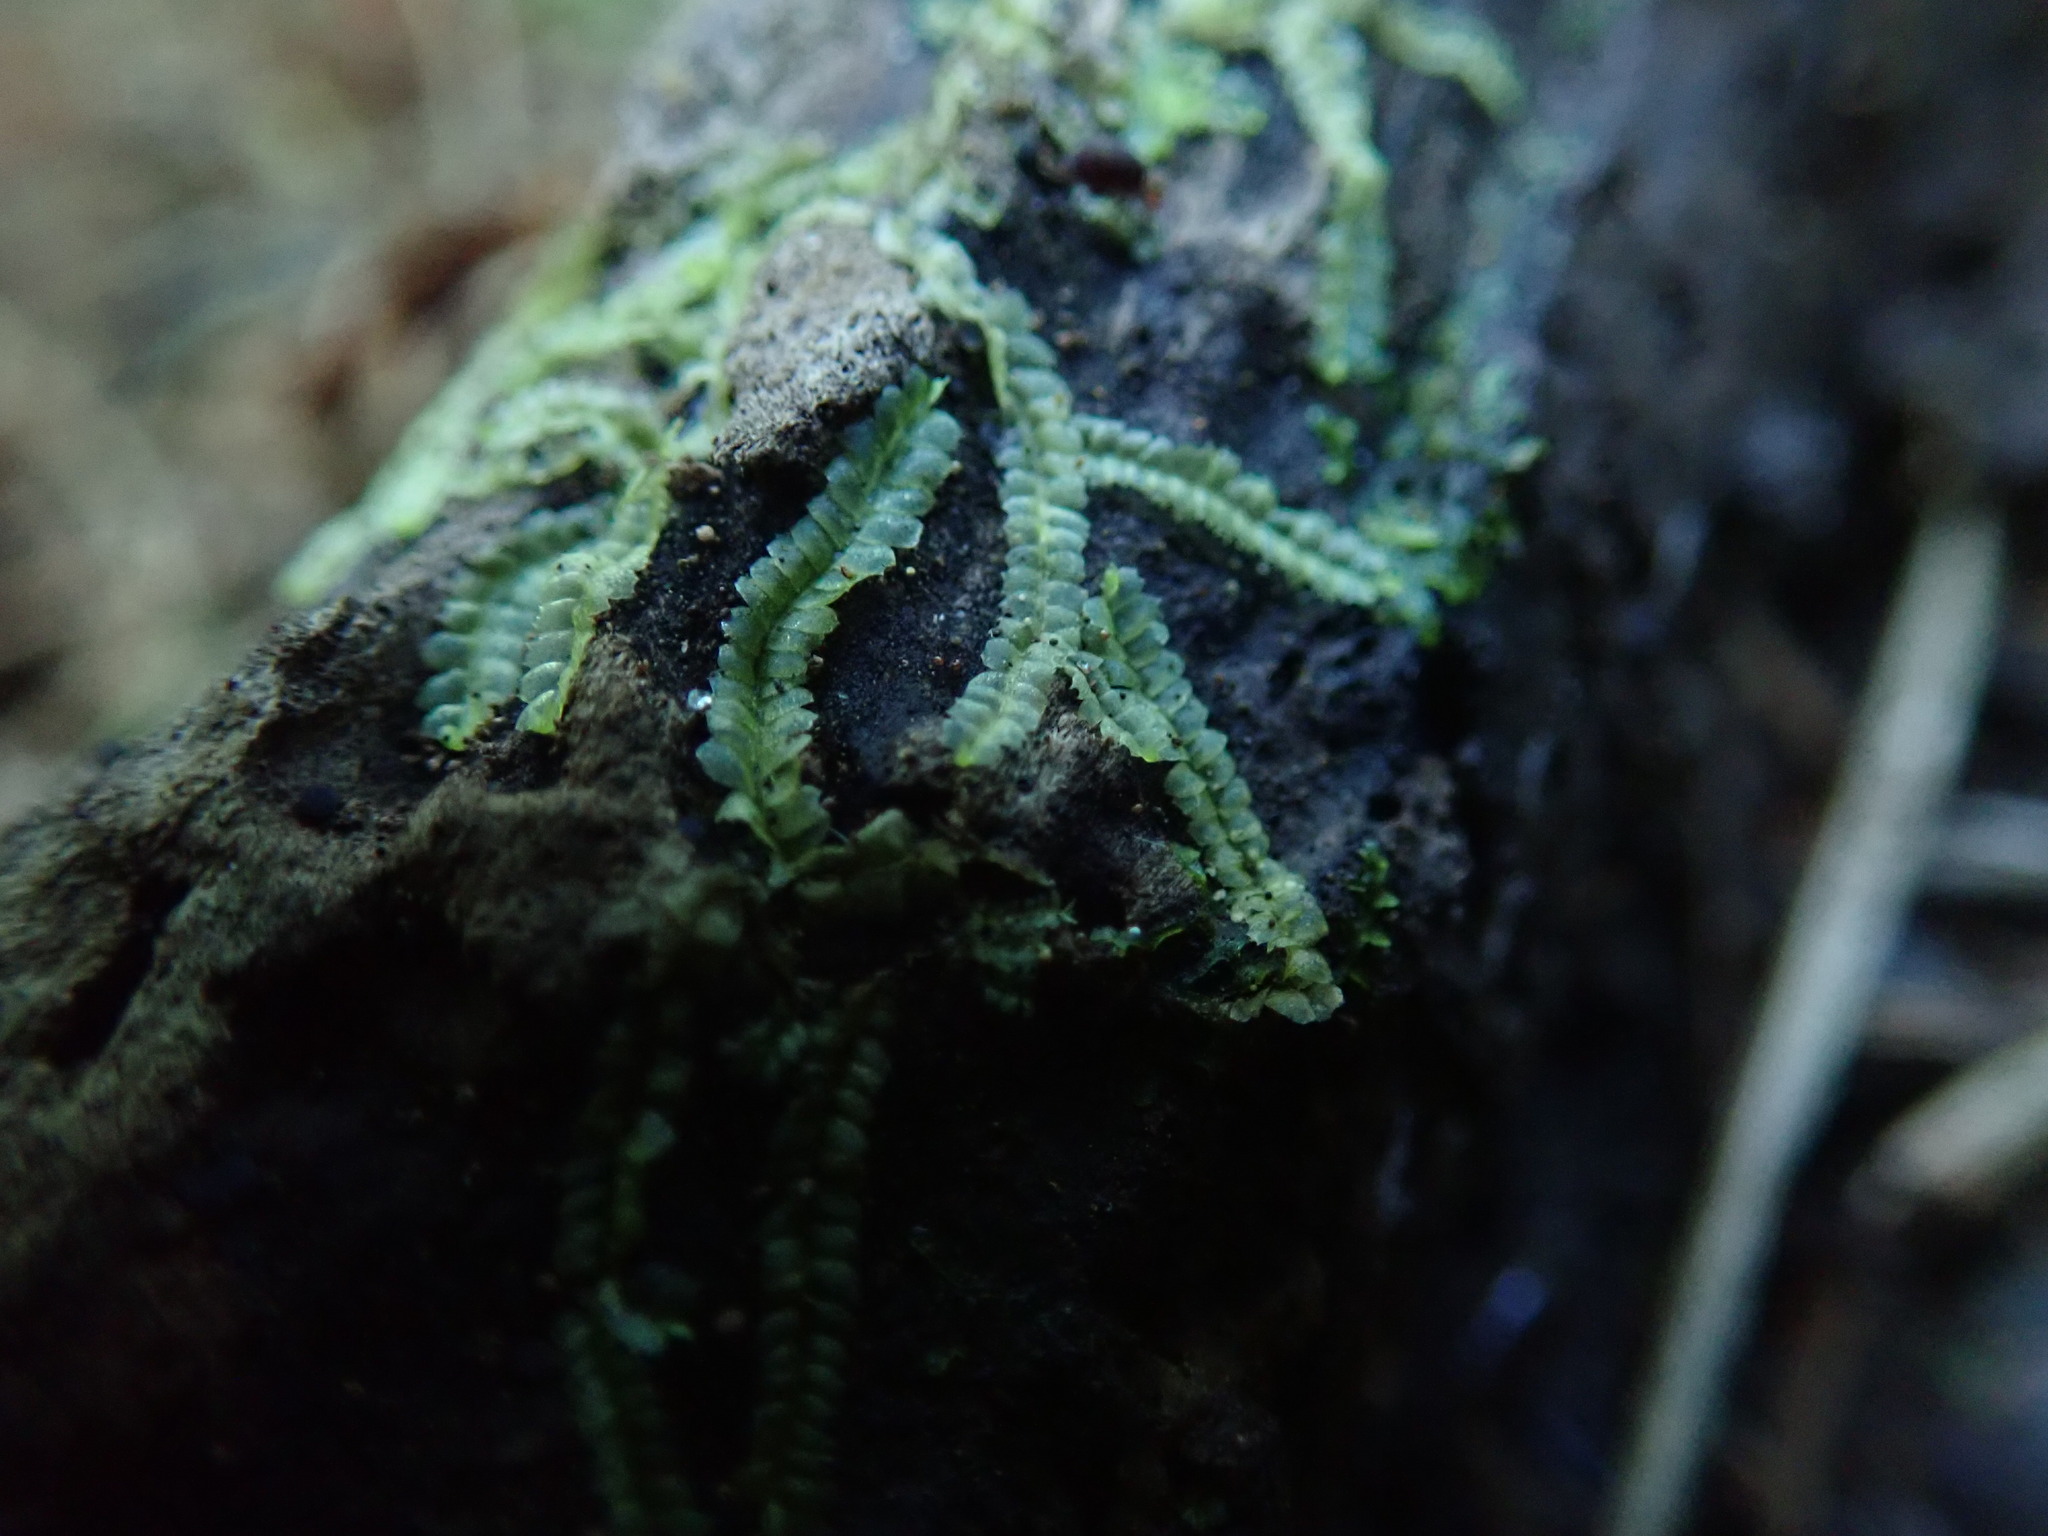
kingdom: Plantae
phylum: Marchantiophyta
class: Jungermanniopsida
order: Jungermanniales
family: Lophocoleaceae
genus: Lophocolea
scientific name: Lophocolea bidentata
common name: Bifid crestwort
